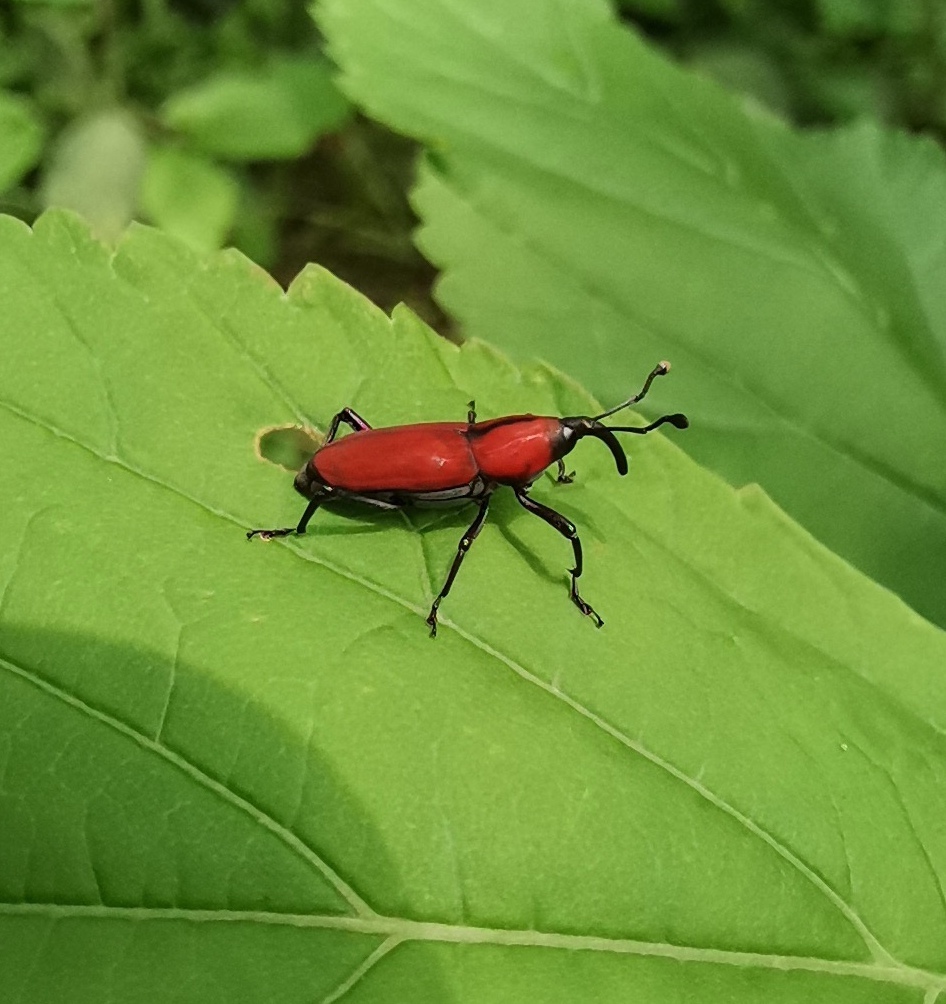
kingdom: Animalia
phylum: Arthropoda
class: Insecta
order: Coleoptera
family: Dryophthoridae
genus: Rhodobaenus
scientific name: Rhodobaenus sanguineus
